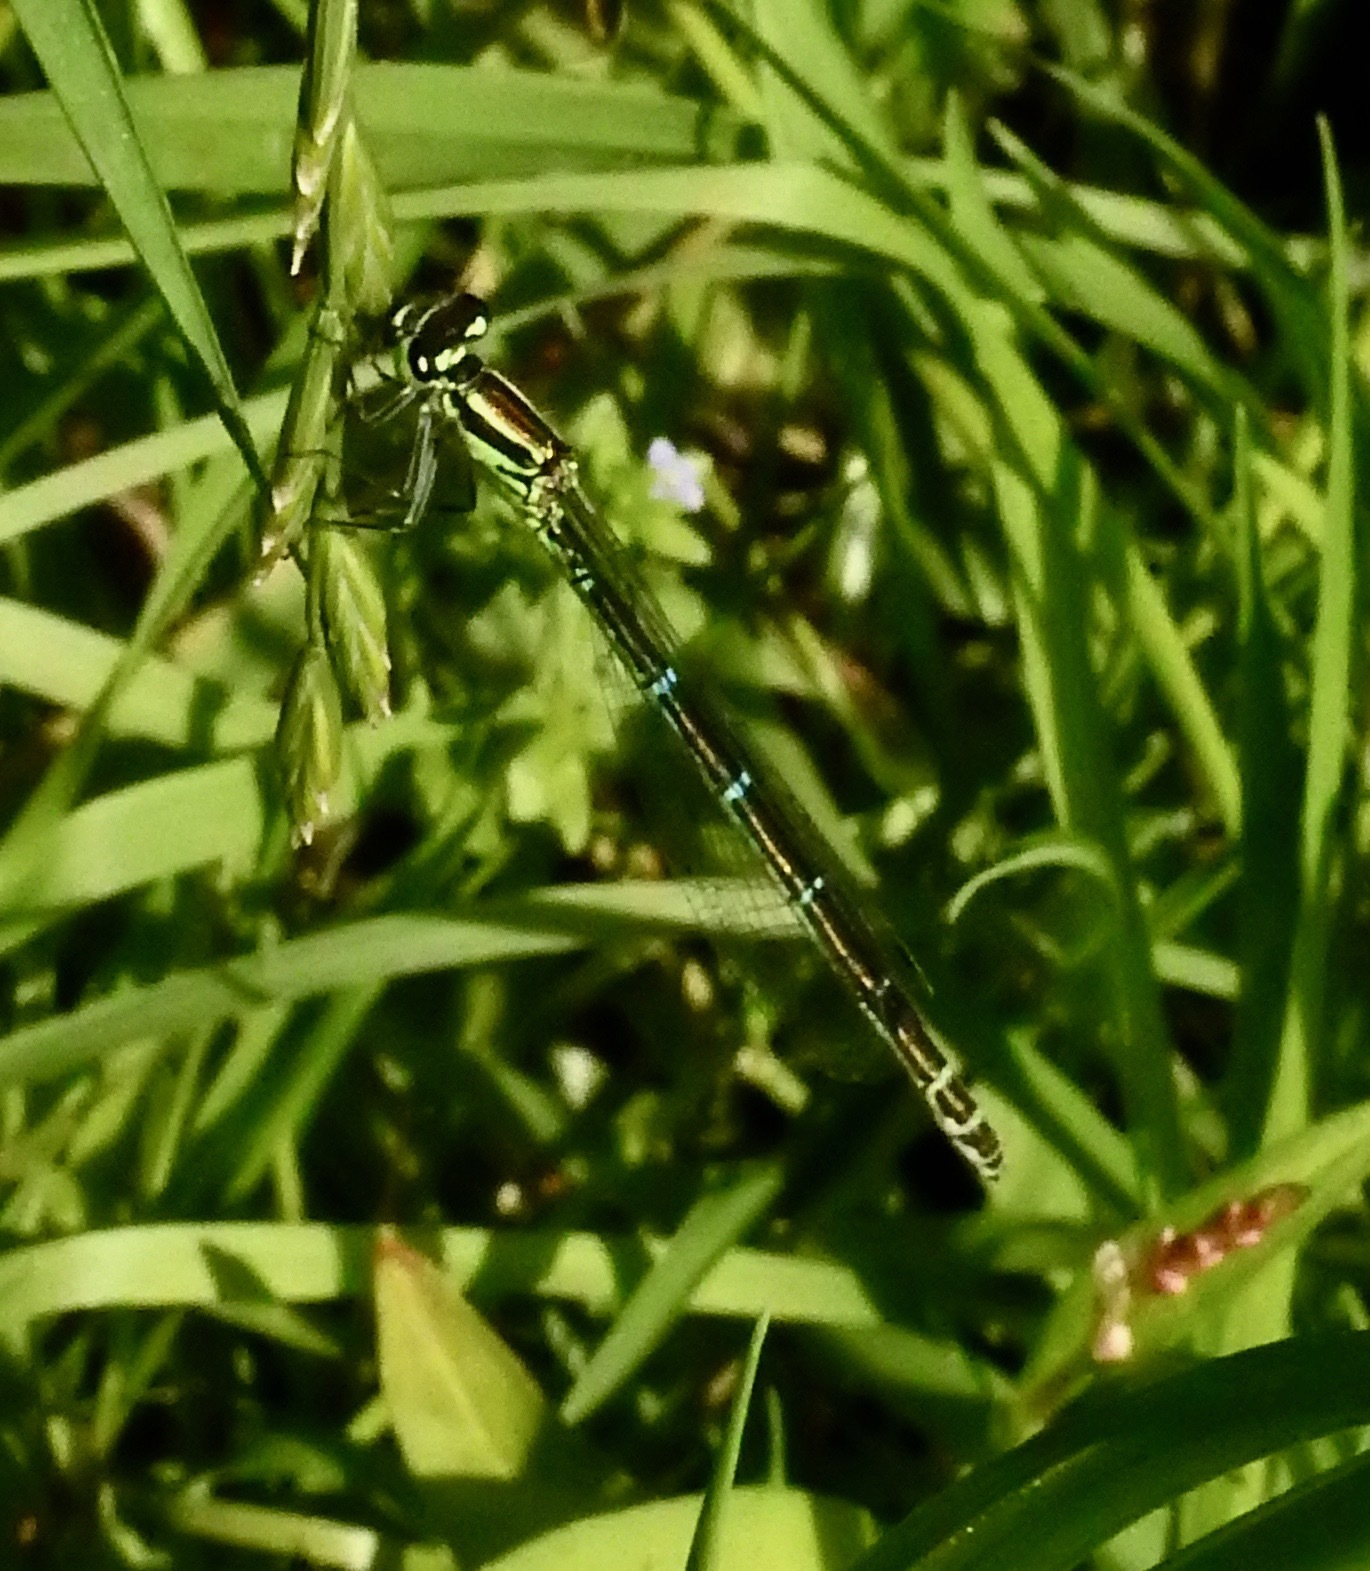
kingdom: Animalia
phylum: Arthropoda
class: Insecta
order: Odonata
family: Coenagrionidae
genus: Coenagrion
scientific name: Coenagrion puella
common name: Azure damselfly
